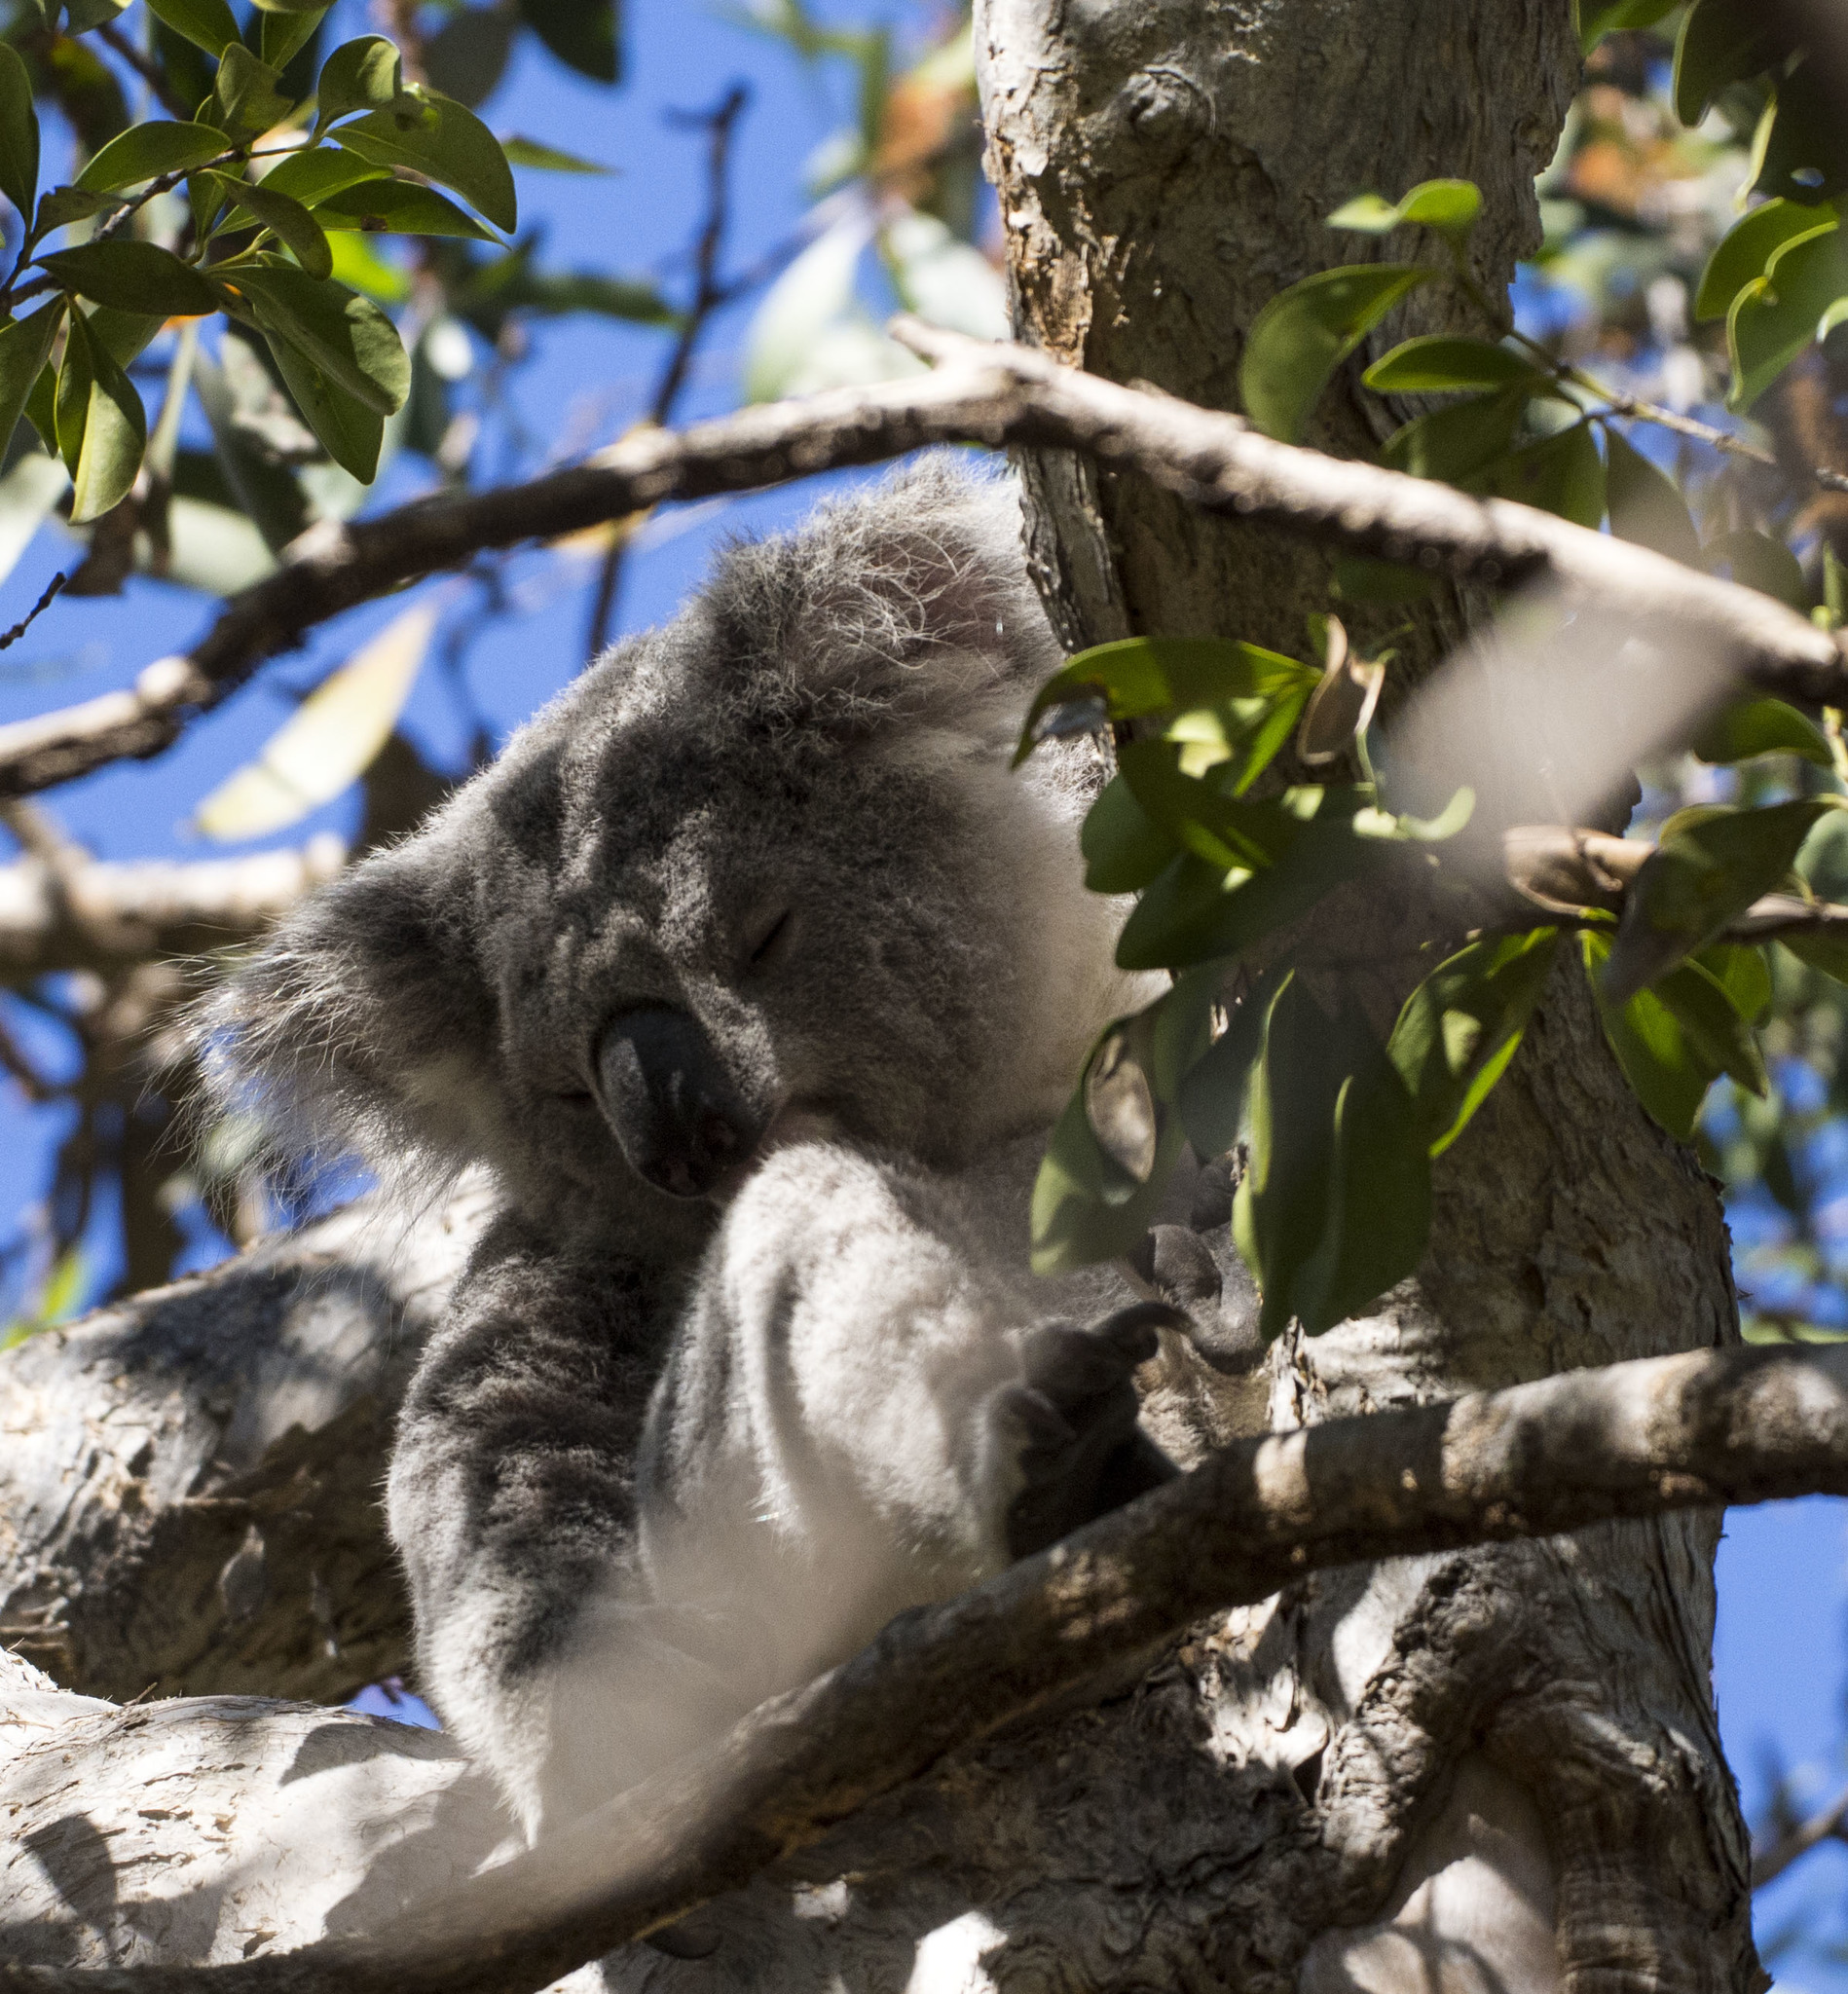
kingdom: Animalia
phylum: Chordata
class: Mammalia
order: Diprotodontia
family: Phascolarctidae
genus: Phascolarctos
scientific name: Phascolarctos cinereus
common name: Koala
